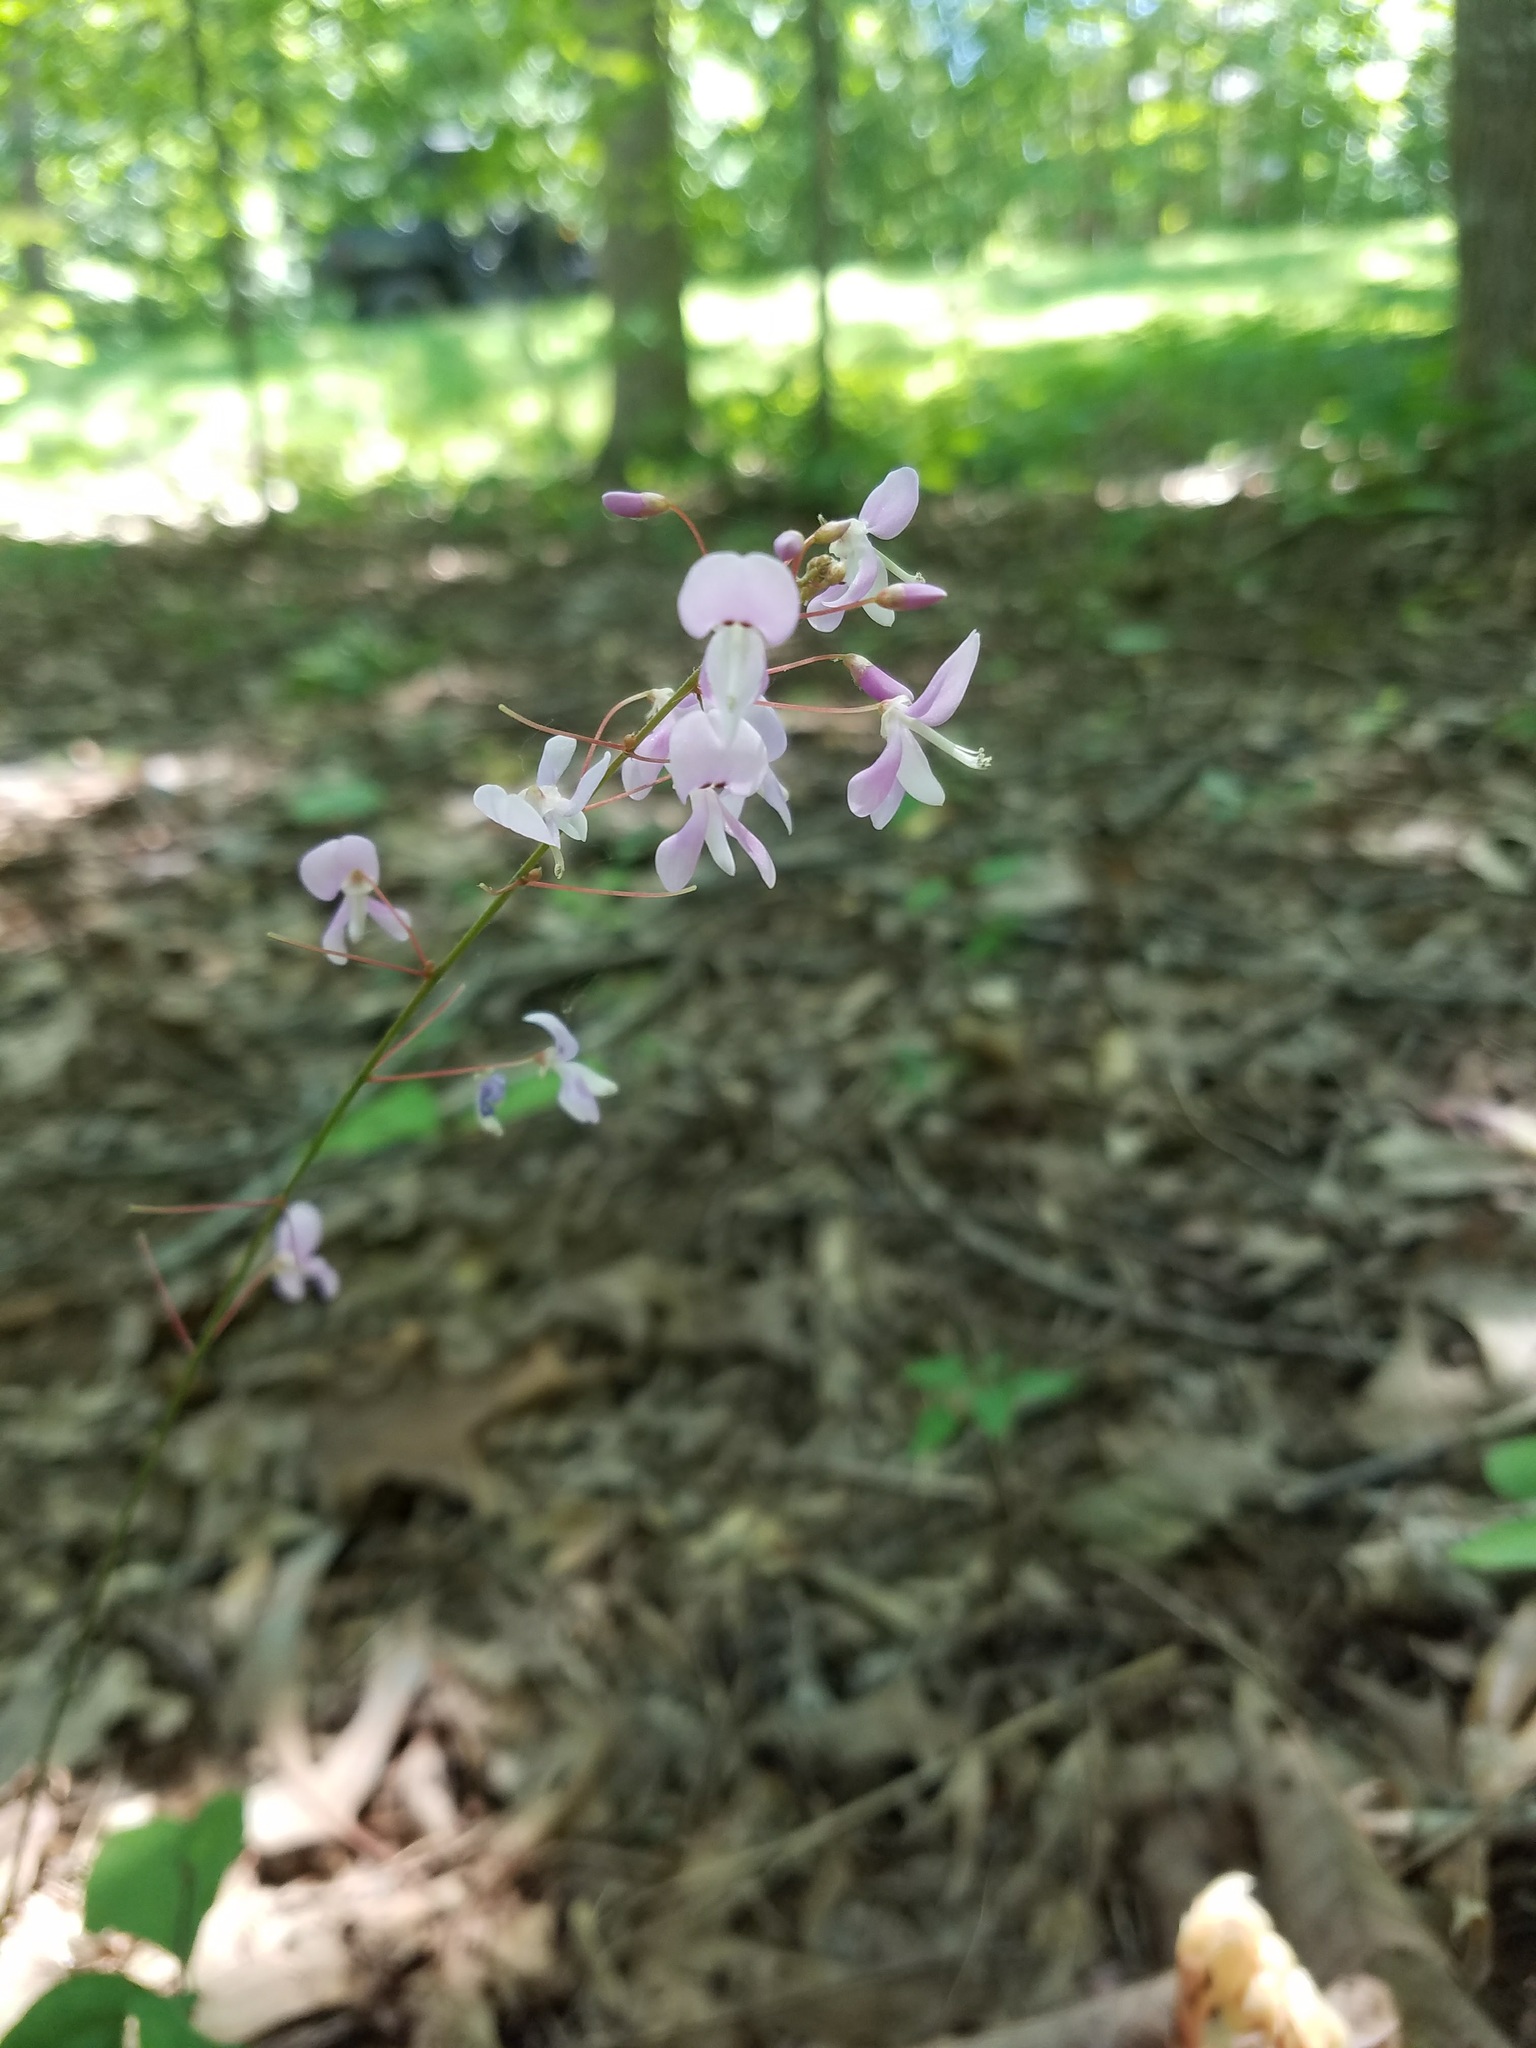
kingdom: Plantae
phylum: Tracheophyta
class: Magnoliopsida
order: Fabales
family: Fabaceae
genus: Hylodesmum
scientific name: Hylodesmum nudiflorum
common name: Bare-stemmed tick-trefoil
